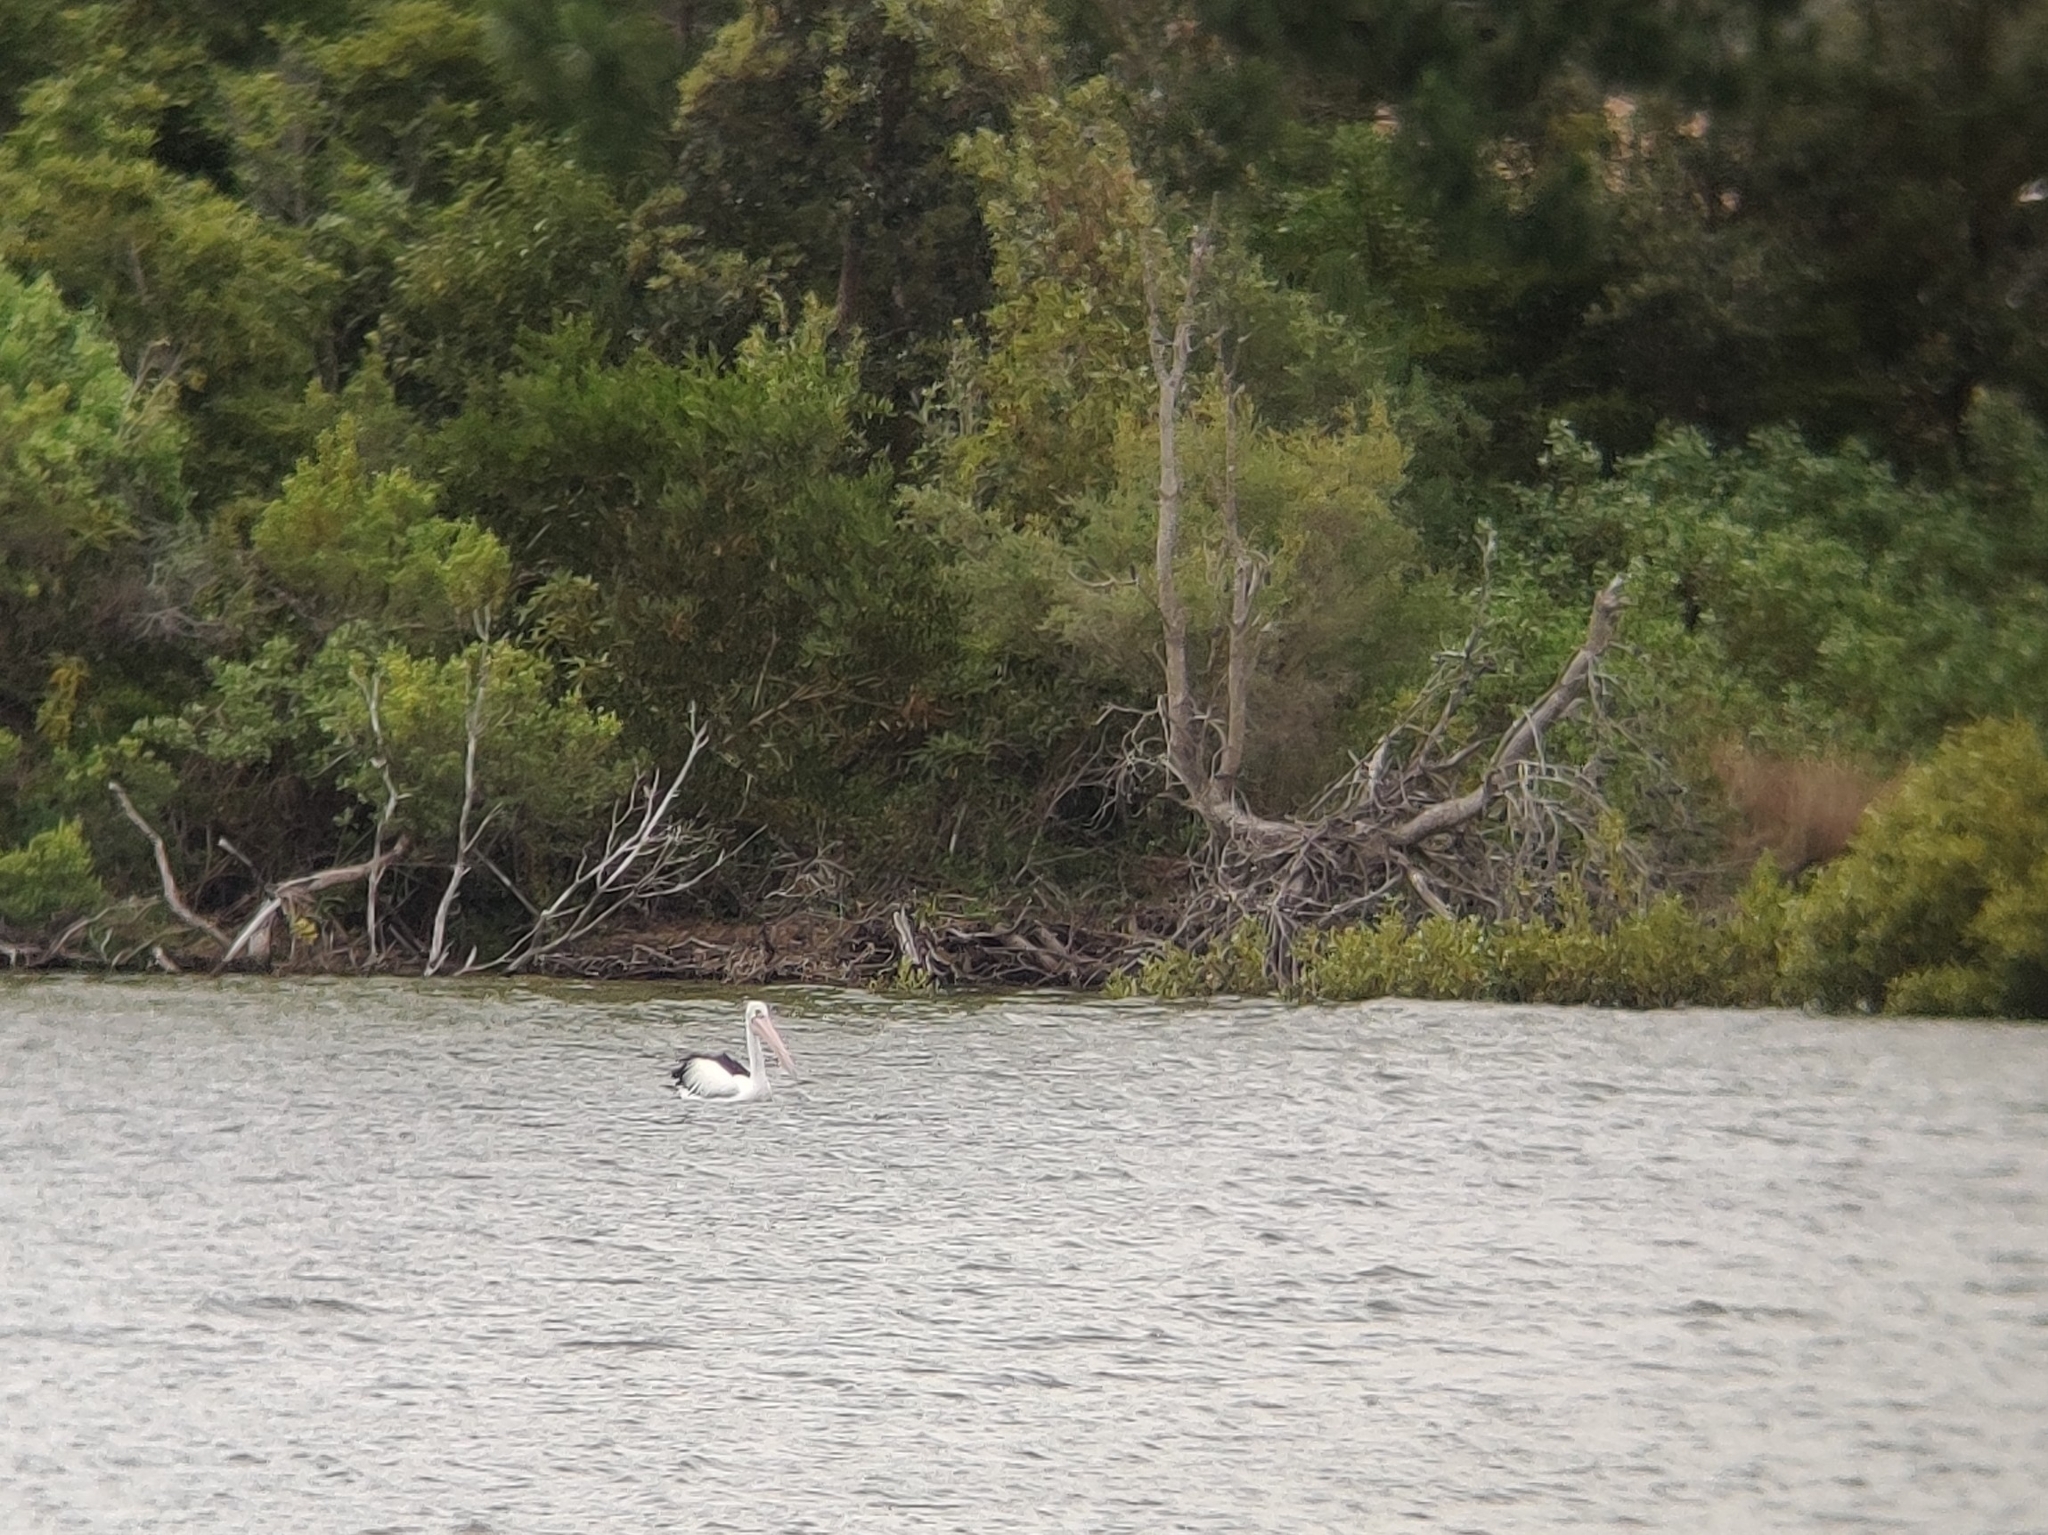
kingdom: Animalia
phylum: Chordata
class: Aves
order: Pelecaniformes
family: Pelecanidae
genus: Pelecanus
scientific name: Pelecanus conspicillatus
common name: Australian pelican
